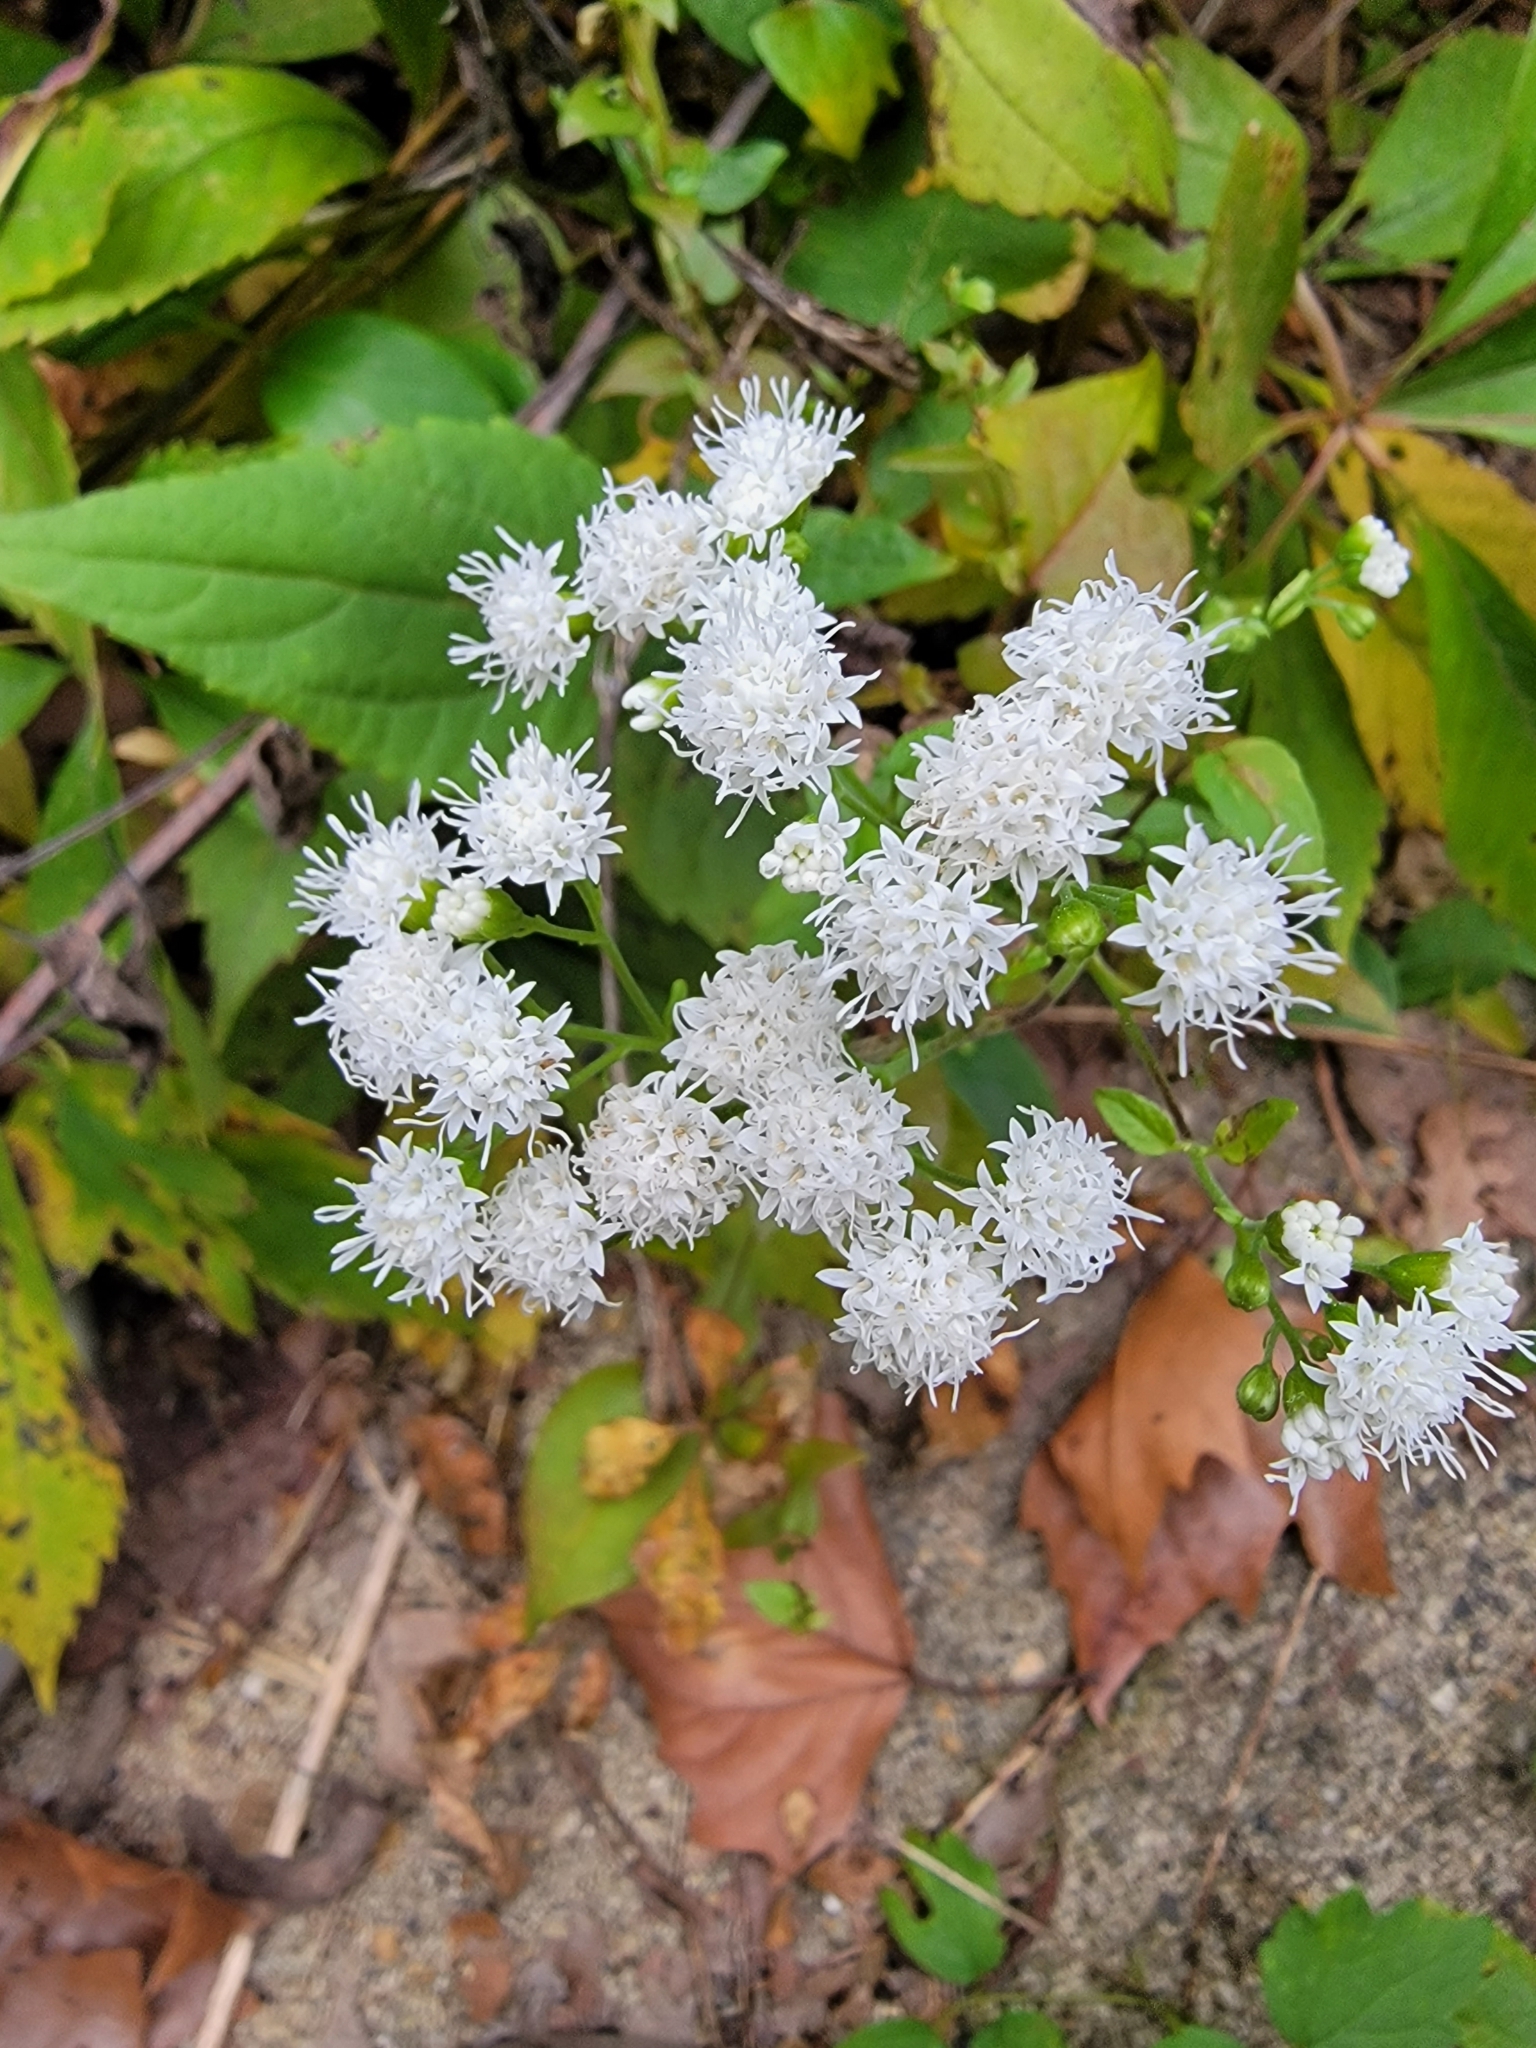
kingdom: Plantae
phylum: Tracheophyta
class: Magnoliopsida
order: Asterales
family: Asteraceae
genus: Ageratina
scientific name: Ageratina altissima
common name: White snakeroot
